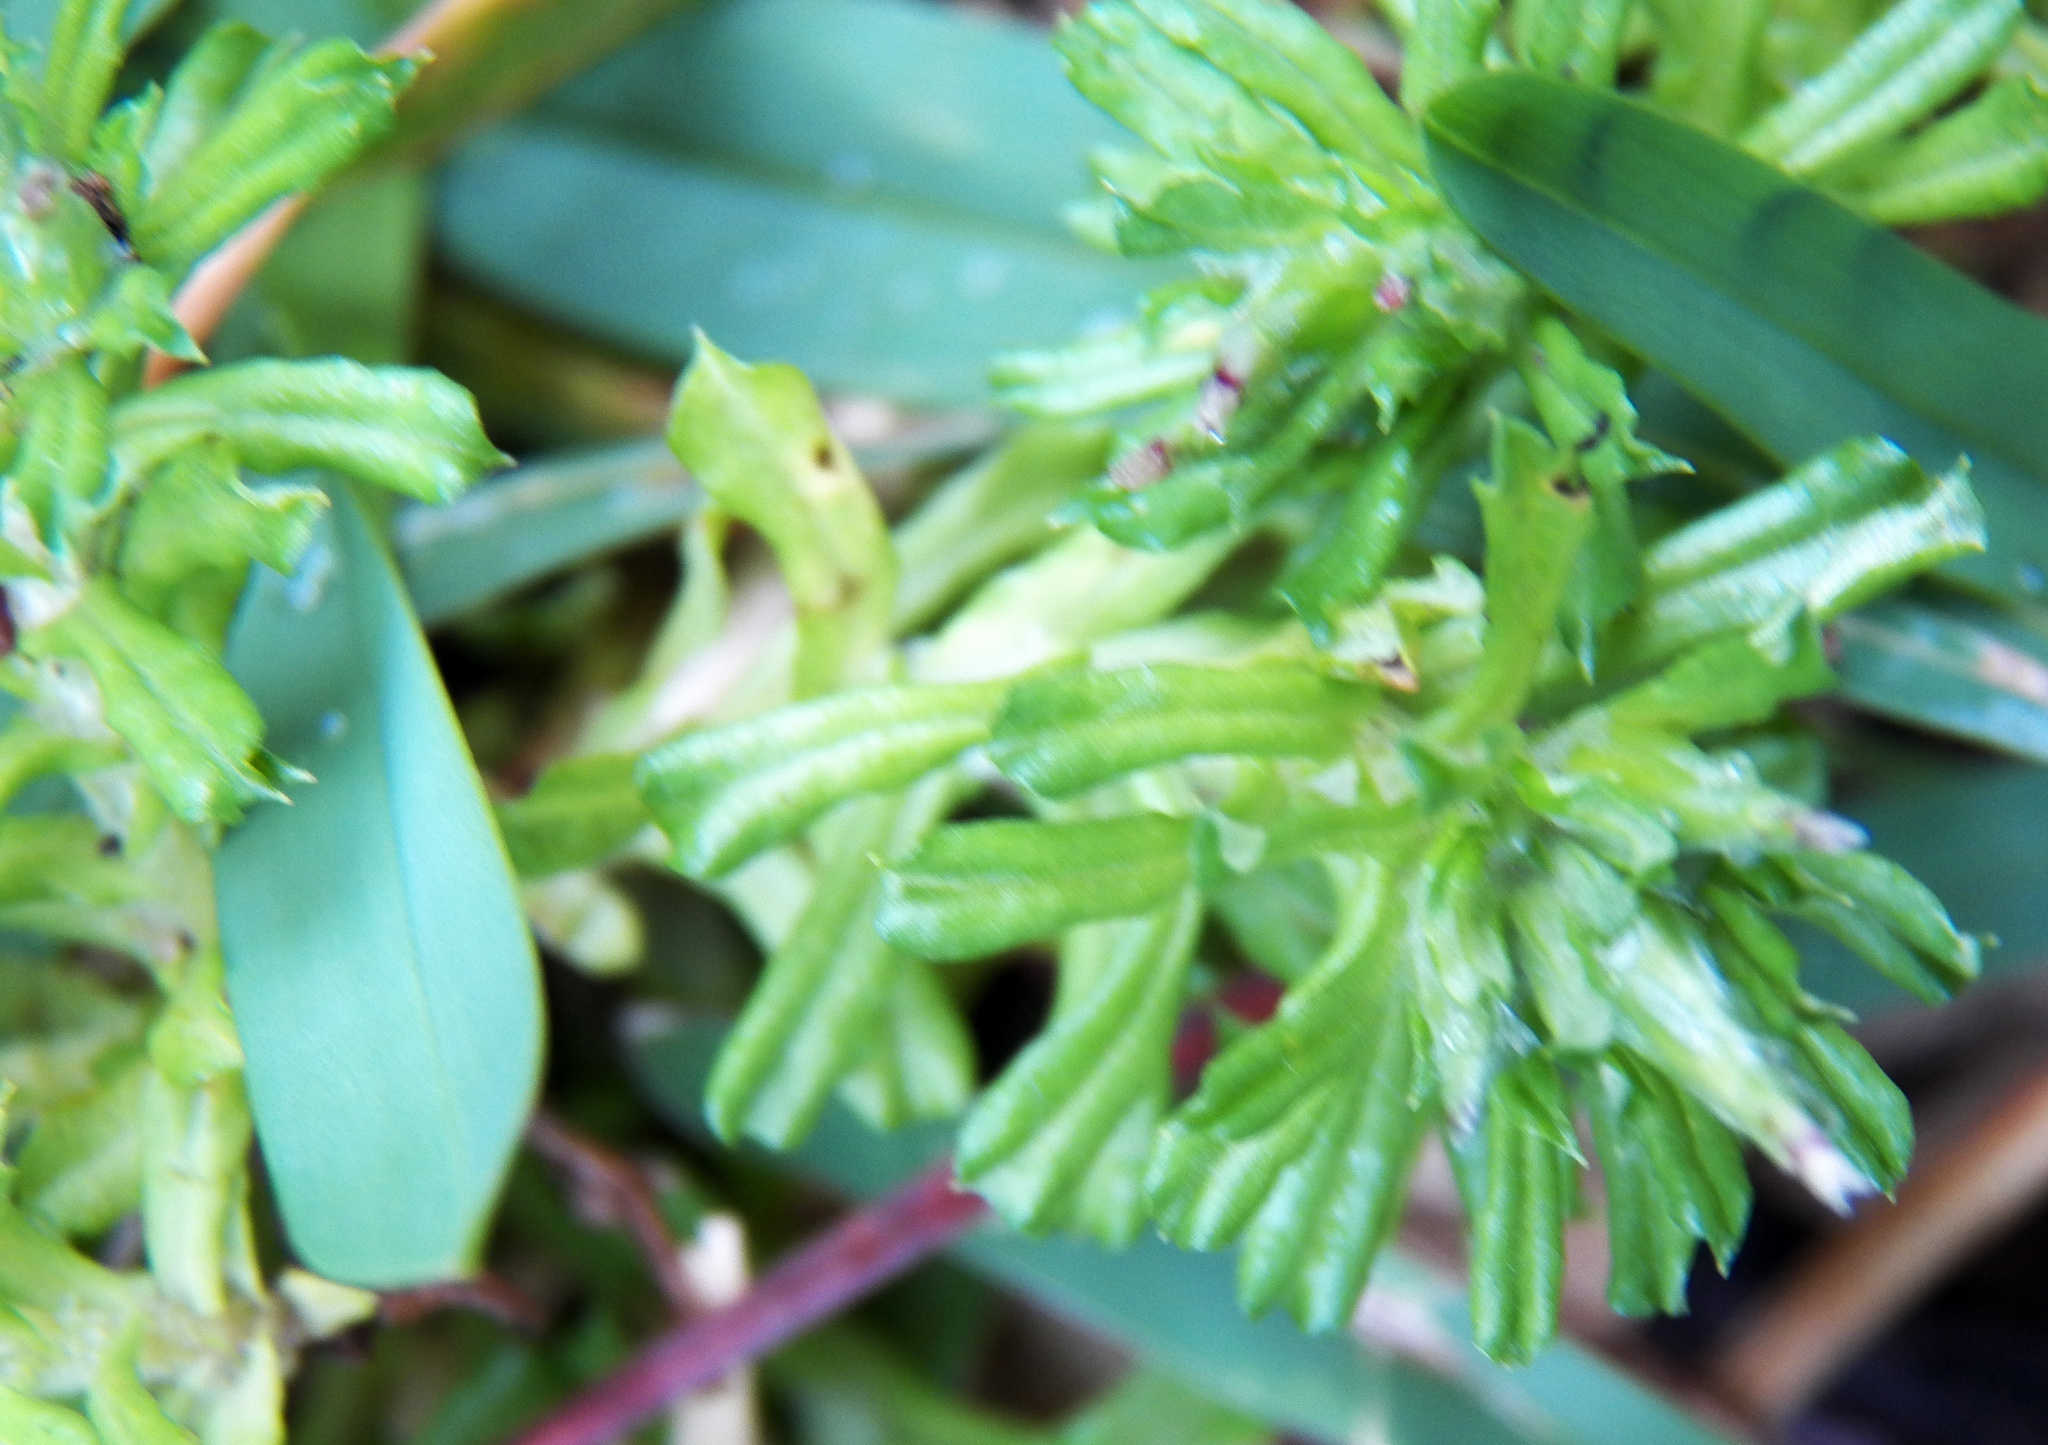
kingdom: Plantae
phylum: Tracheophyta
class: Magnoliopsida
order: Asterales
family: Asteraceae
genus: Facelis
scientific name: Facelis retusa
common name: Annual trampweed
